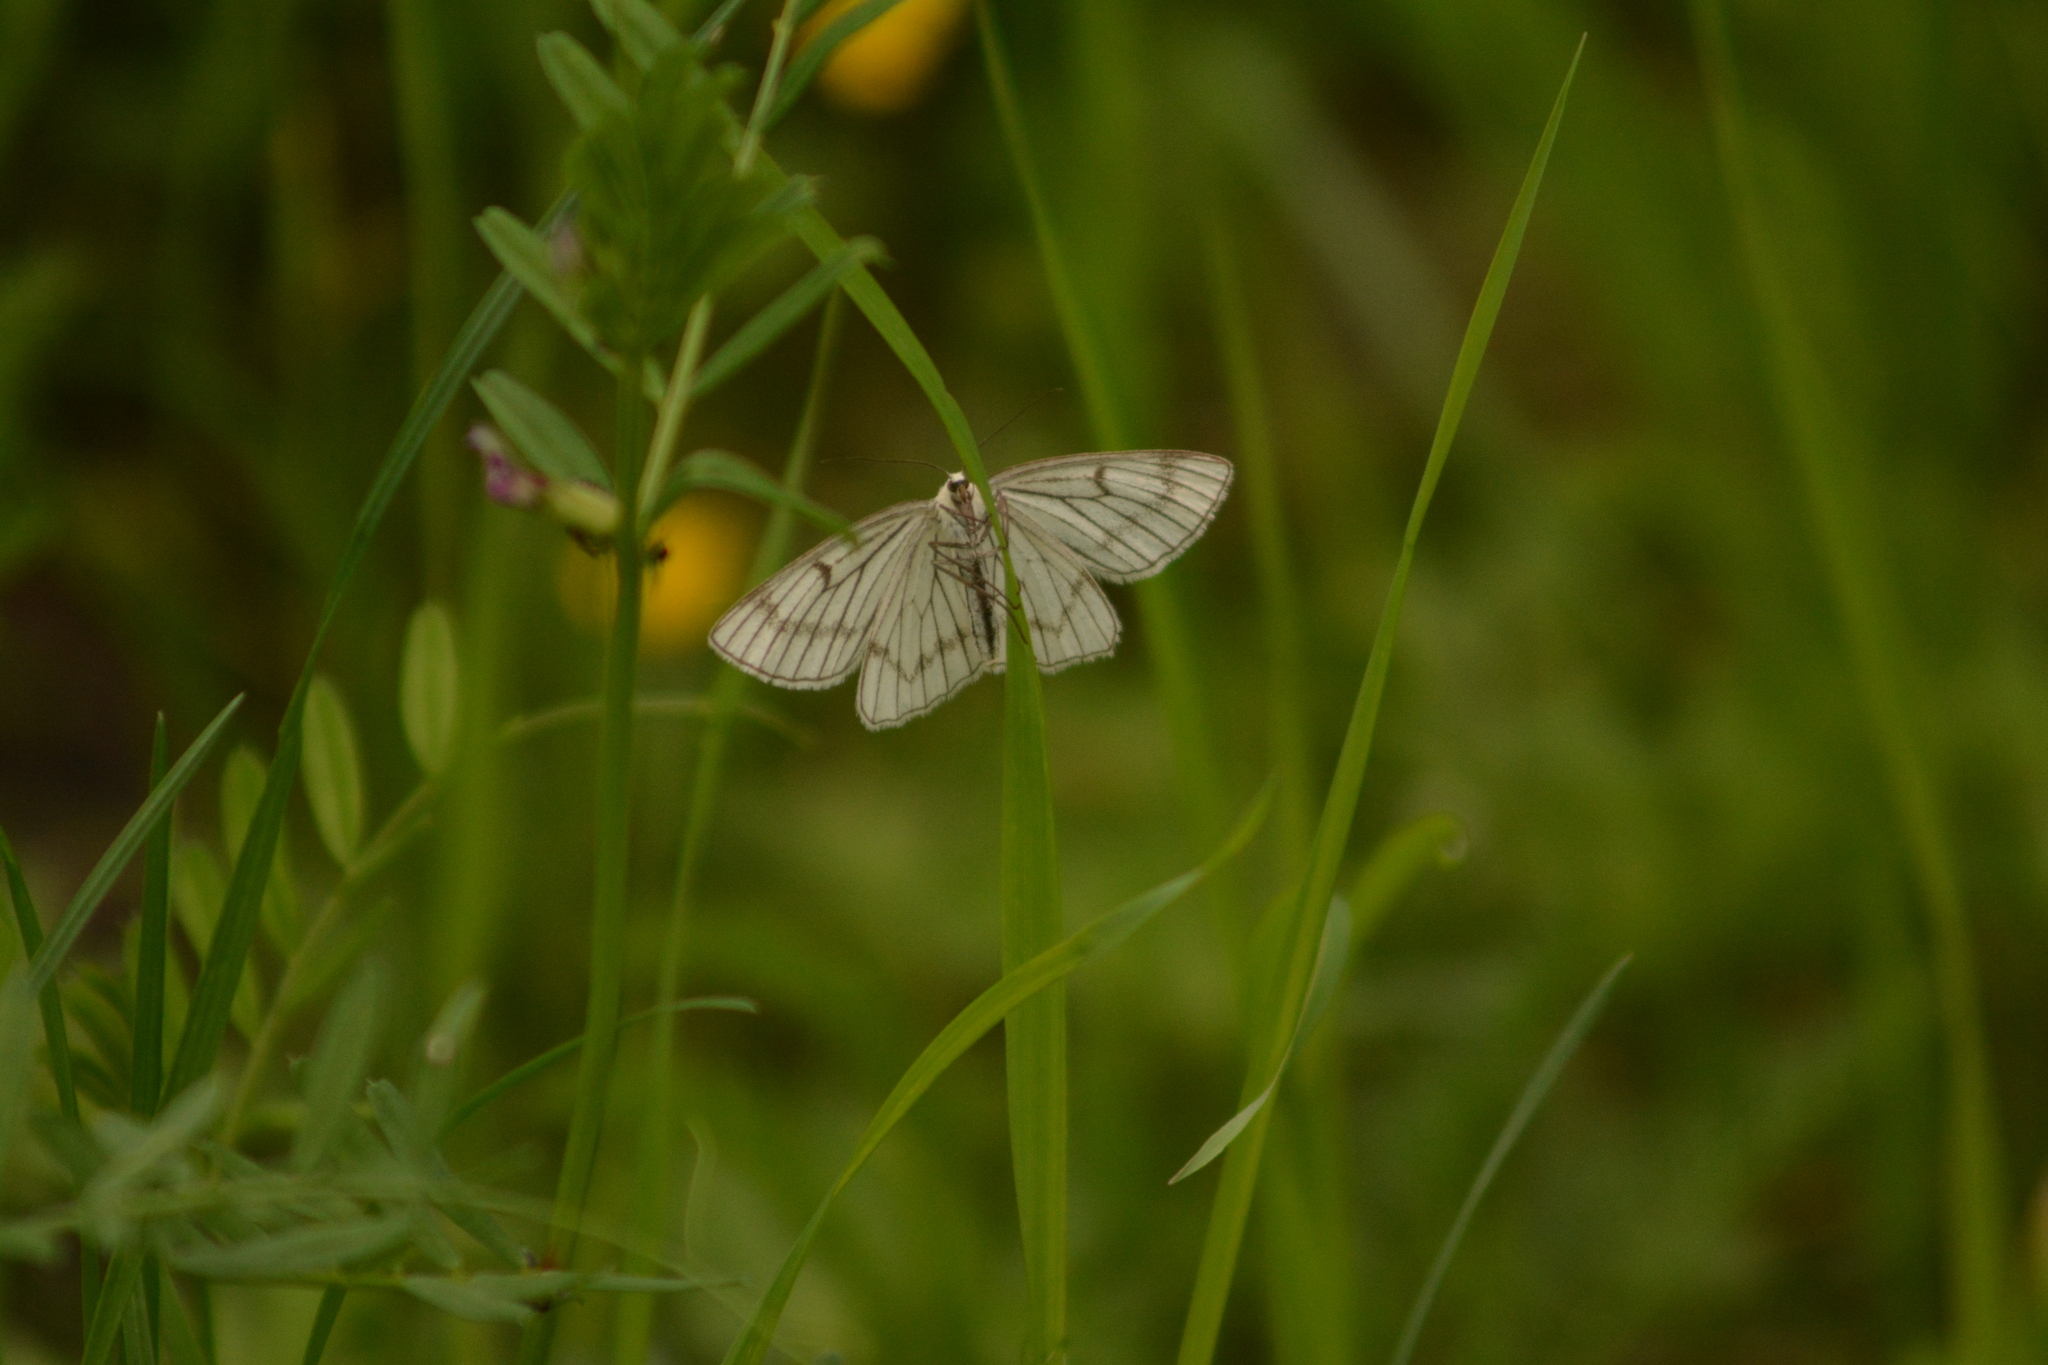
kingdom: Animalia
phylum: Arthropoda
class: Insecta
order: Lepidoptera
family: Geometridae
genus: Siona
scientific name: Siona lineata
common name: Black-veined moth
